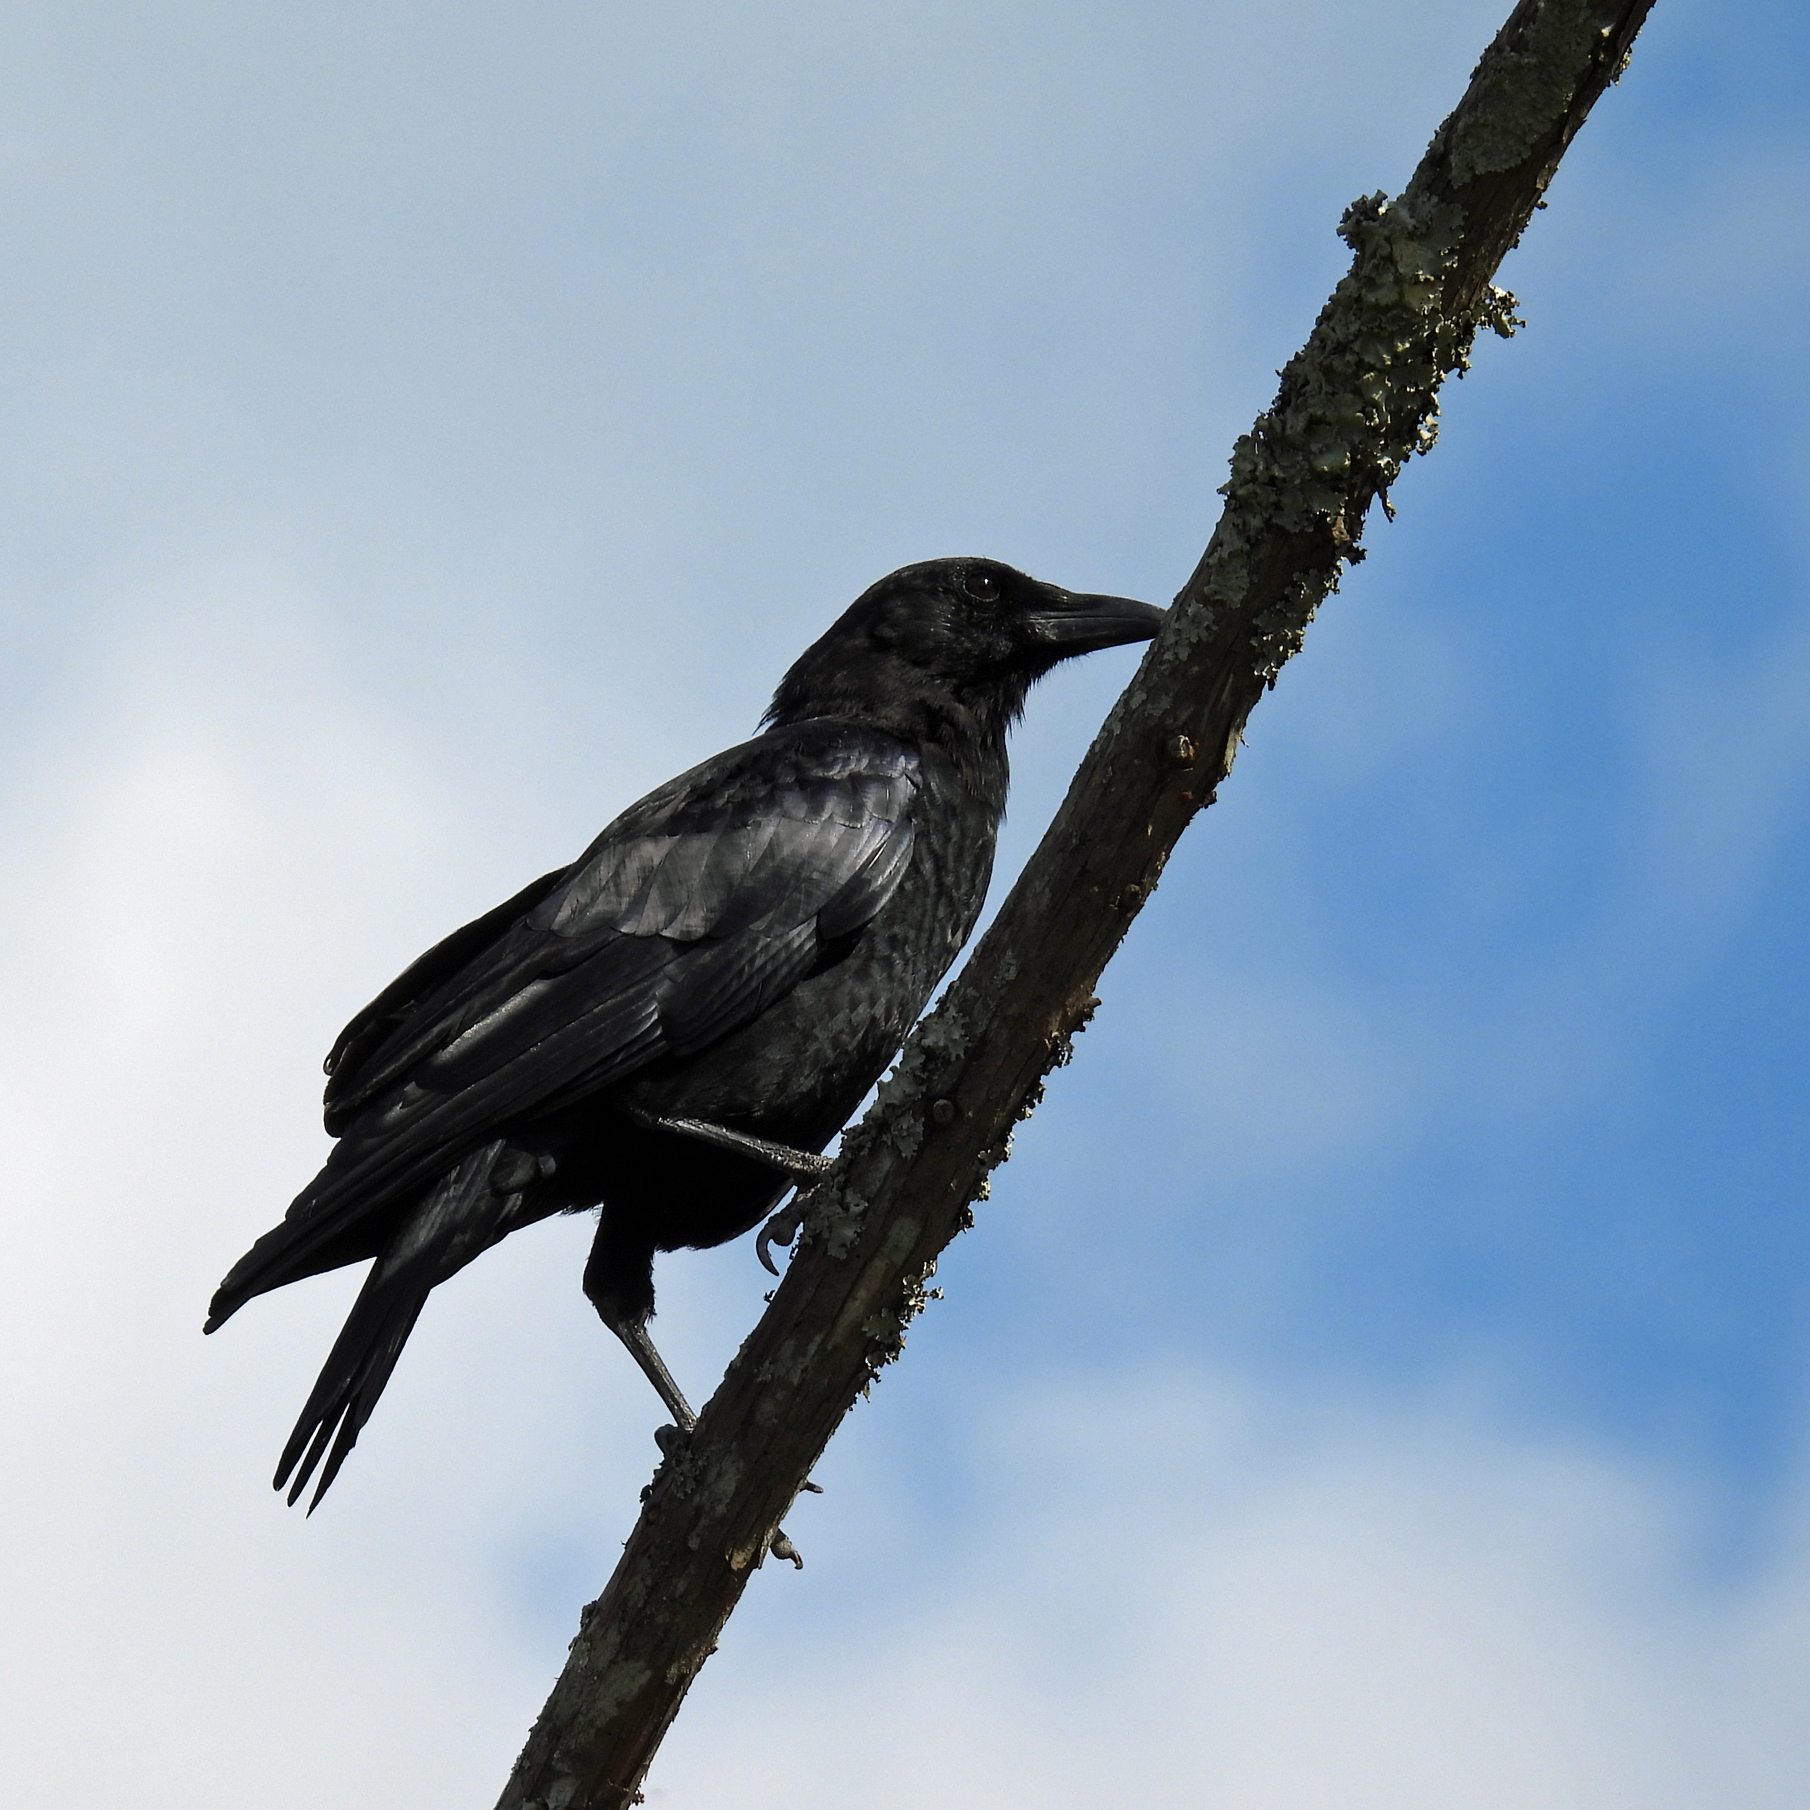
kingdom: Animalia
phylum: Chordata
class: Aves
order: Passeriformes
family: Corvidae
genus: Corvus
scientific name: Corvus brachyrhynchos
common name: American crow
